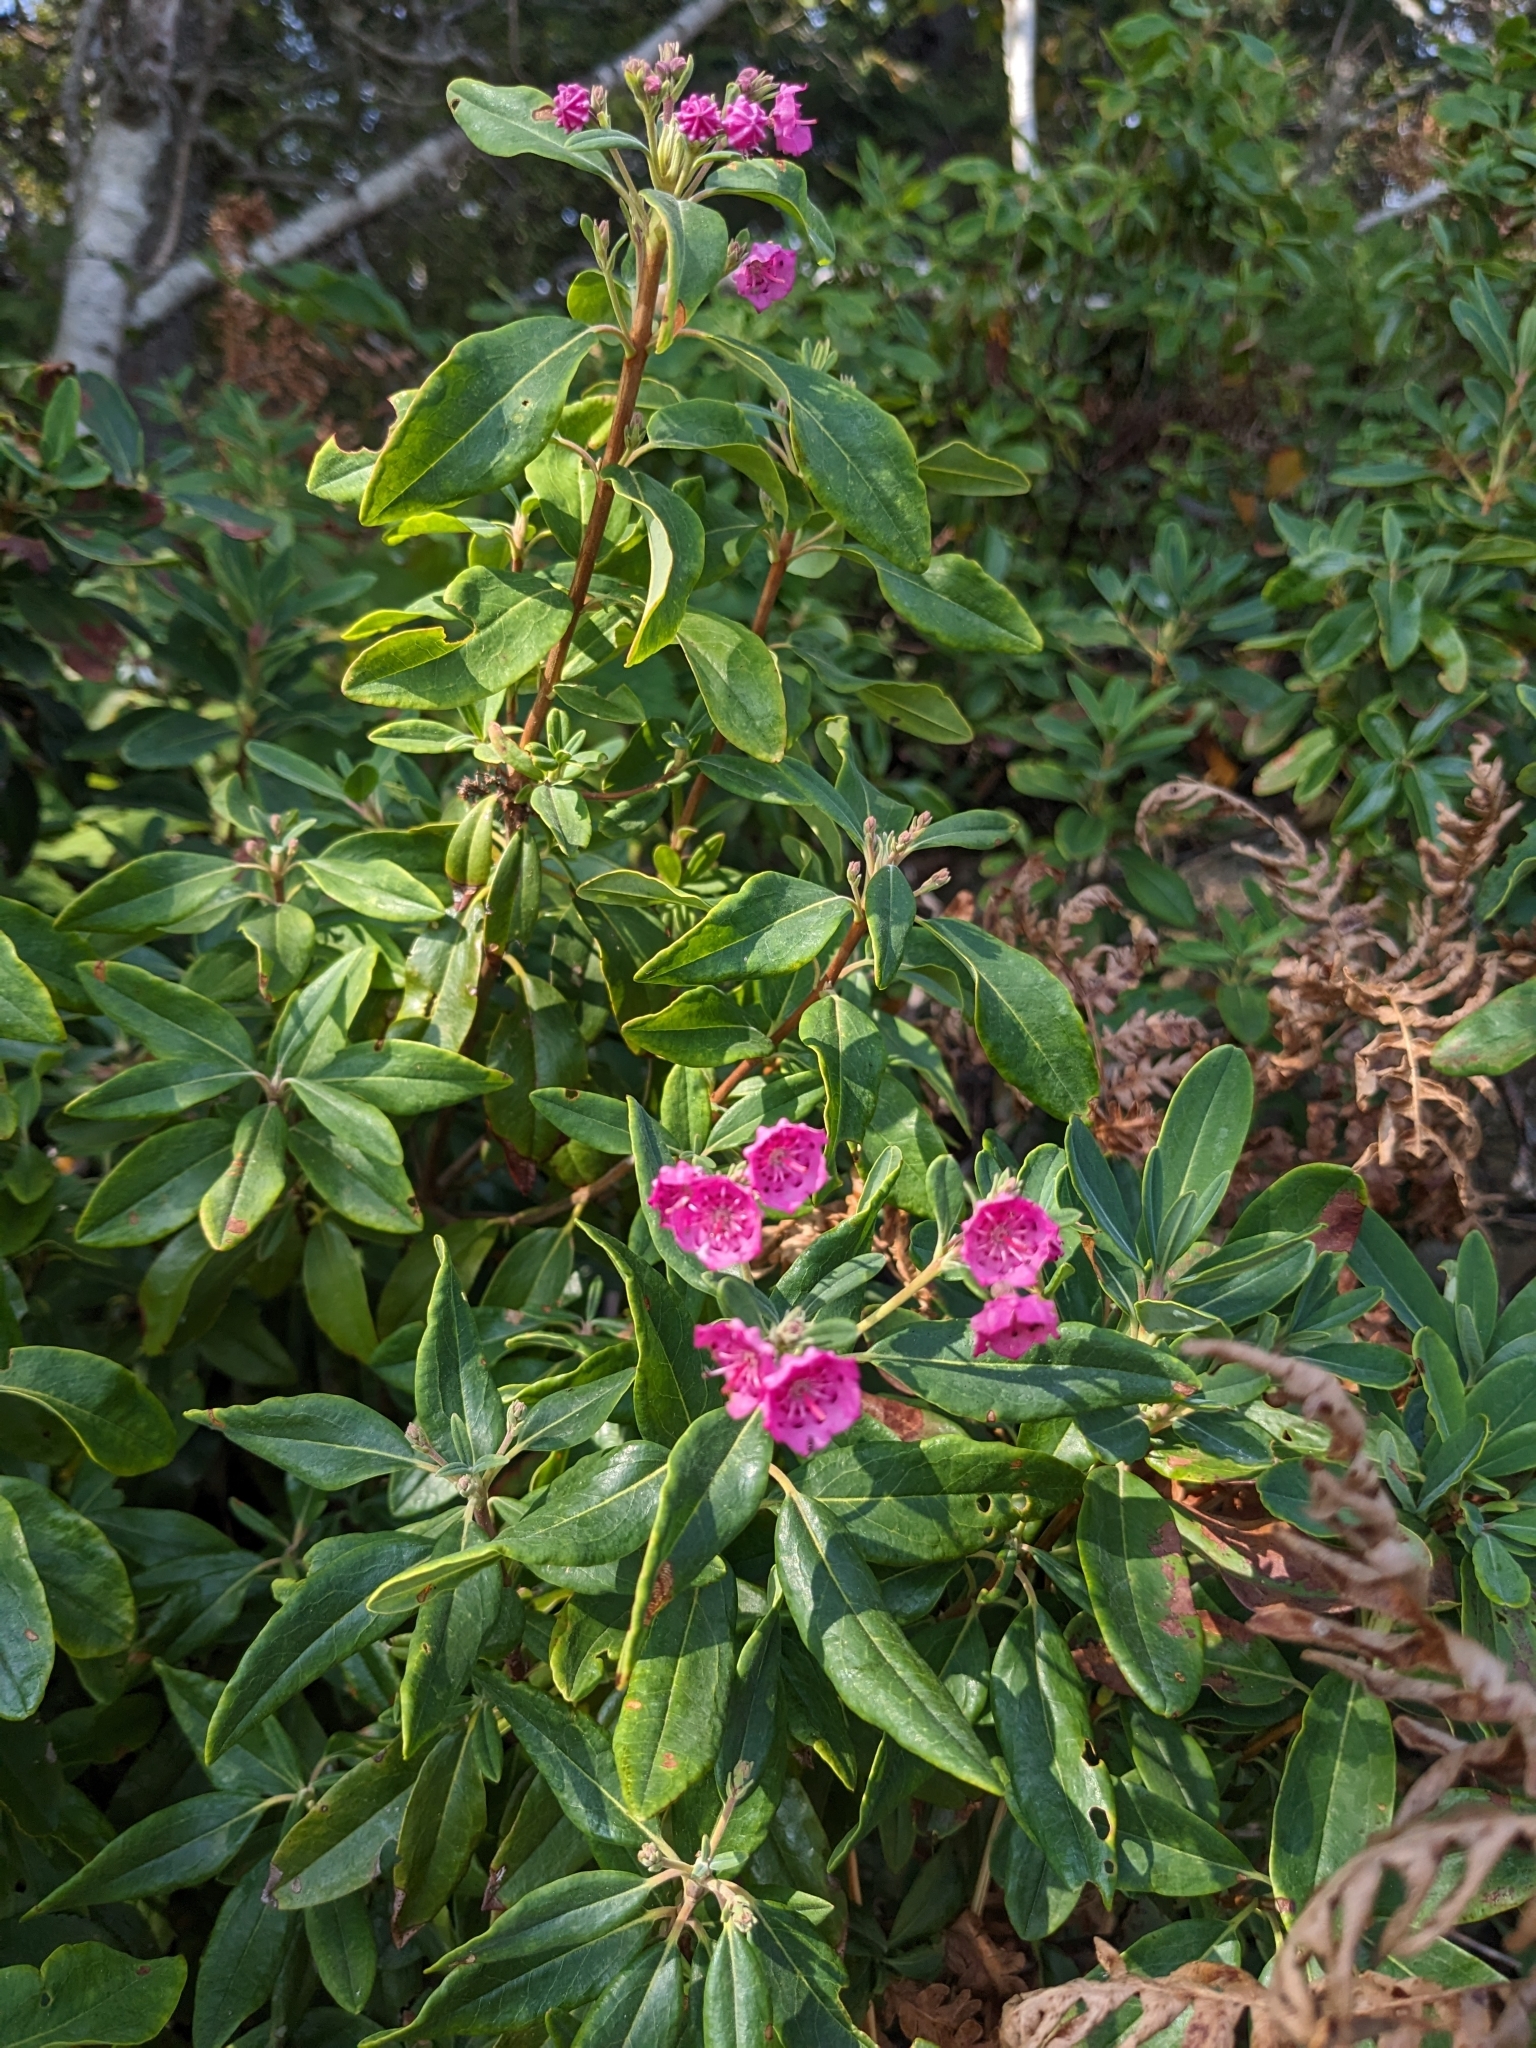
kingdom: Plantae
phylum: Tracheophyta
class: Magnoliopsida
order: Ericales
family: Ericaceae
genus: Kalmia
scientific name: Kalmia angustifolia
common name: Sheep-laurel
